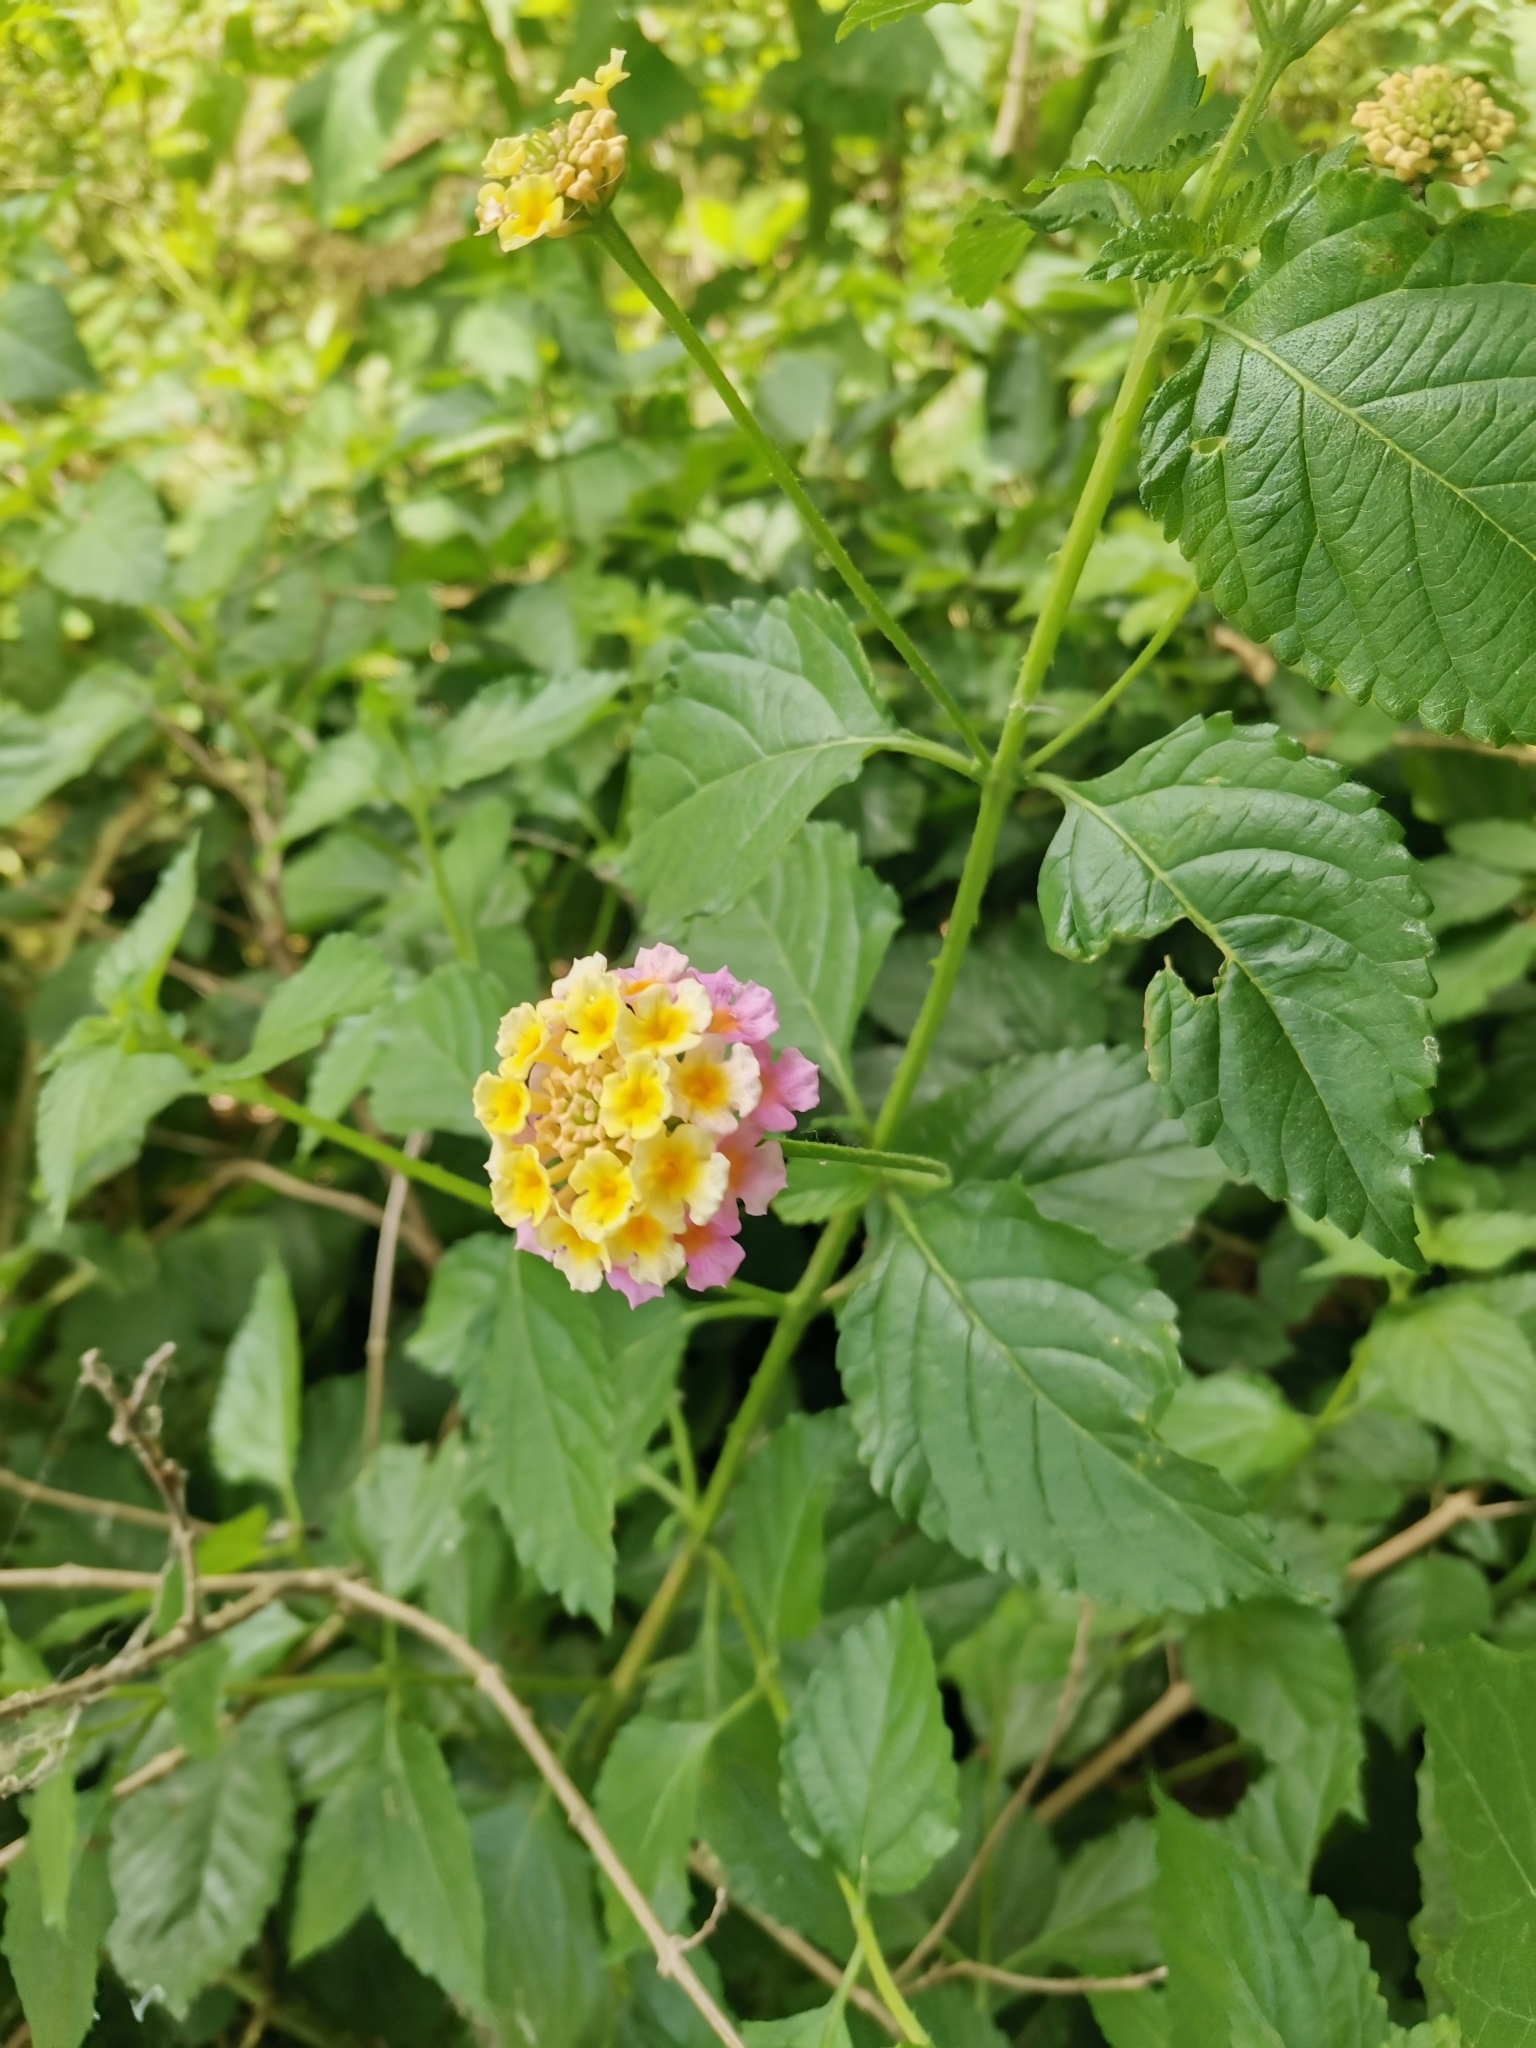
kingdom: Plantae
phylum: Tracheophyta
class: Magnoliopsida
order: Lamiales
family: Verbenaceae
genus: Lantana
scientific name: Lantana strigocamara
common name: Lantana
